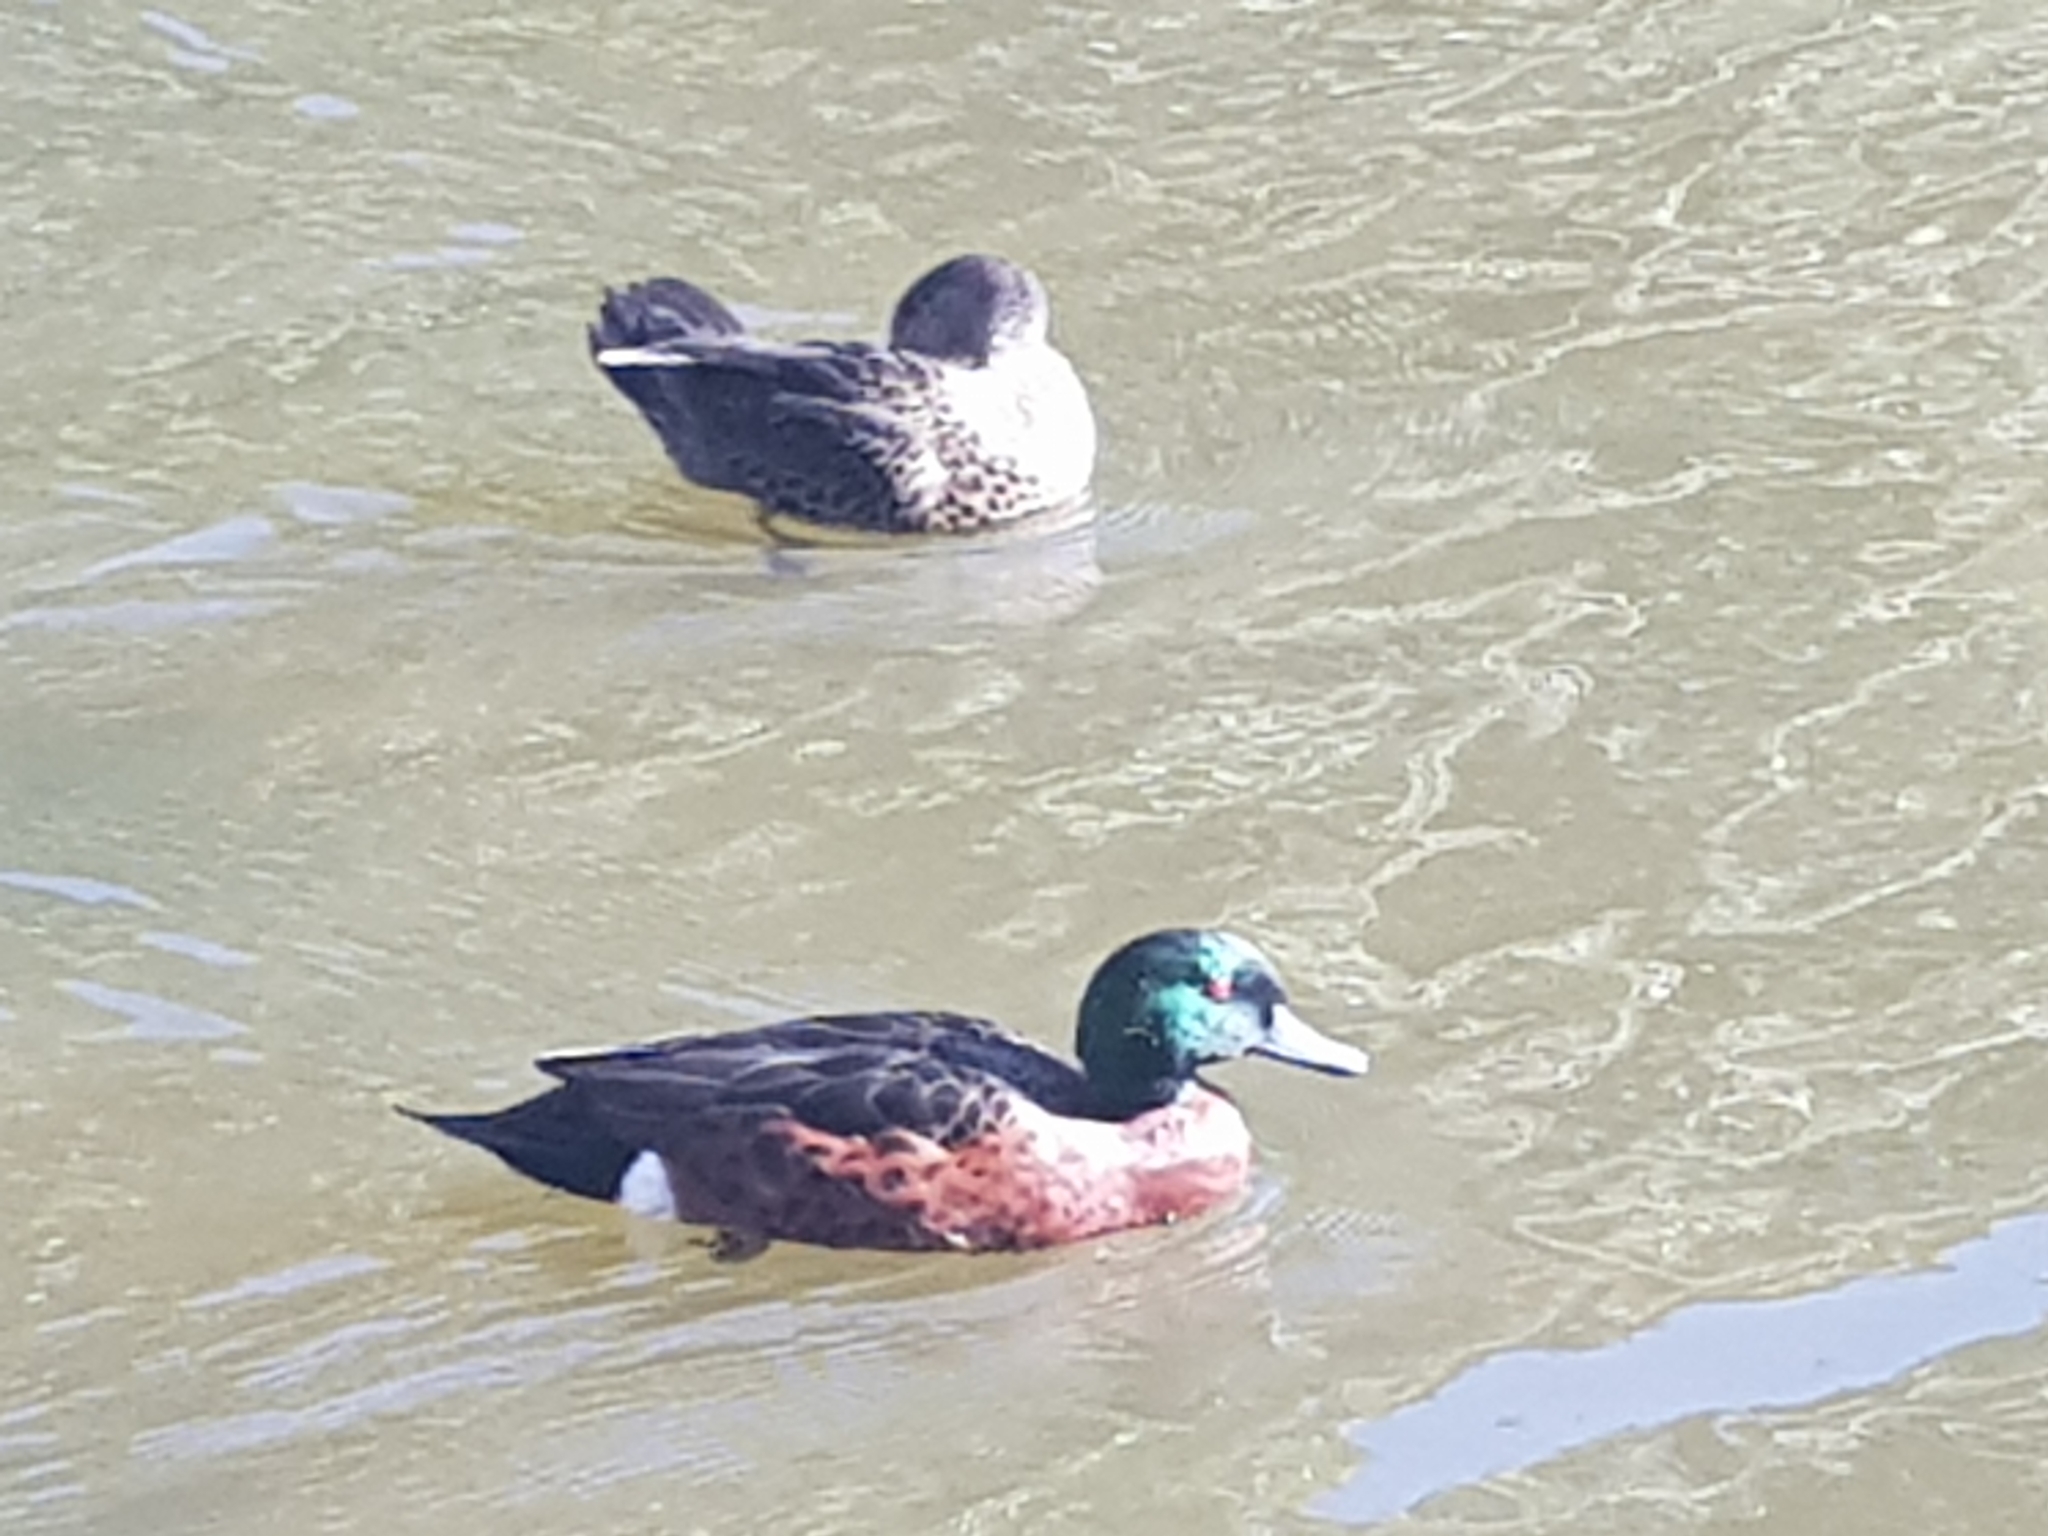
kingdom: Animalia
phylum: Chordata
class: Aves
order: Anseriformes
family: Anatidae
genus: Anas
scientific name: Anas castanea
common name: Chestnut teal
